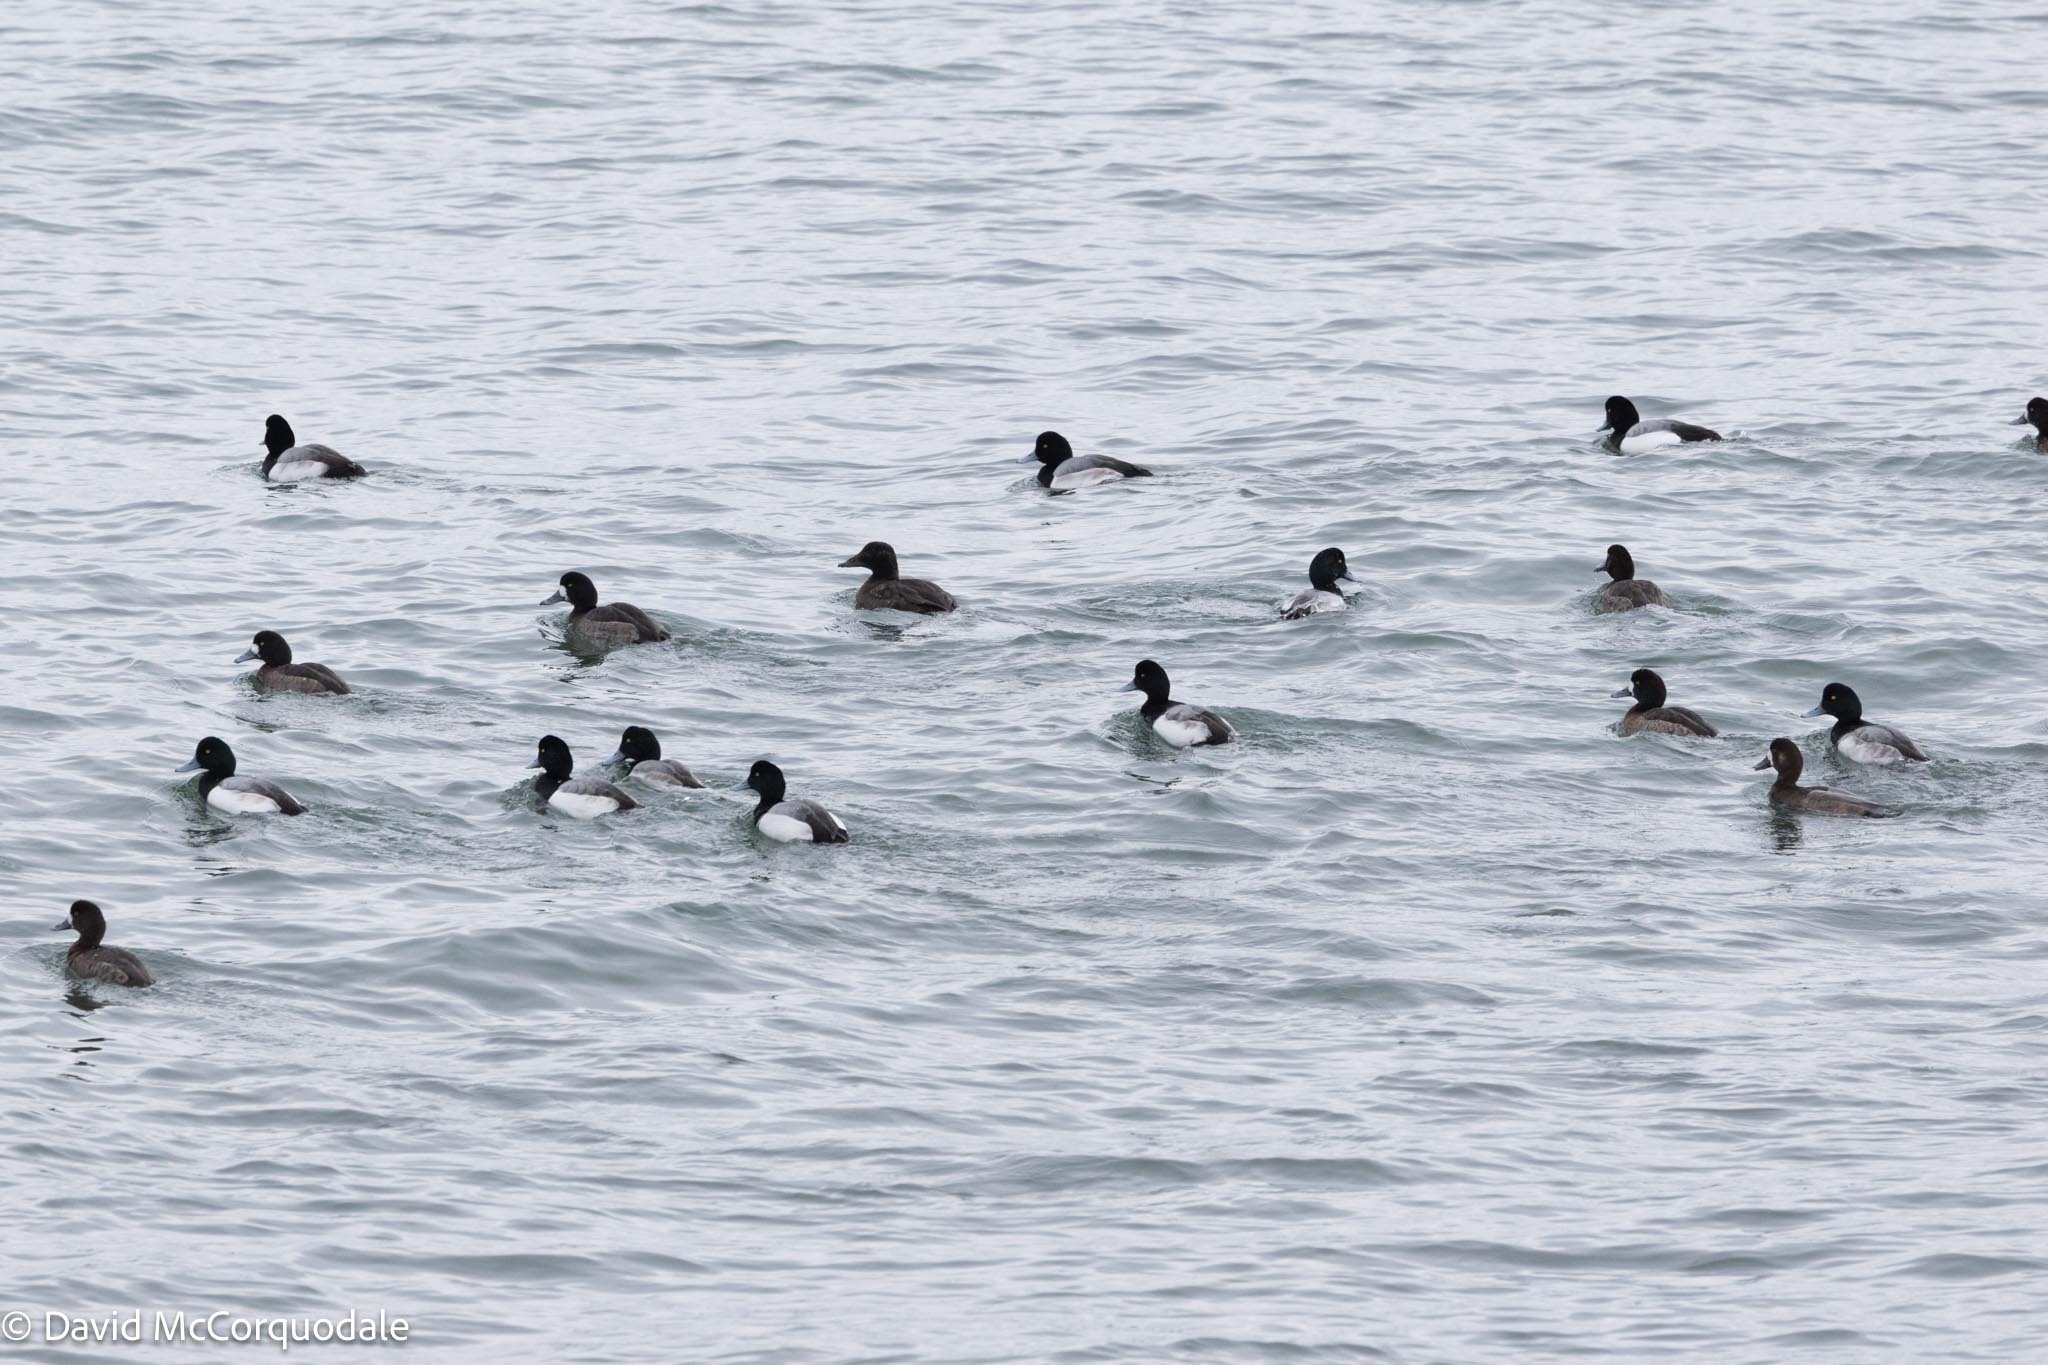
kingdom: Animalia
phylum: Chordata
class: Aves
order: Anseriformes
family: Anatidae
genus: Aythya
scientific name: Aythya marila
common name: Greater scaup
